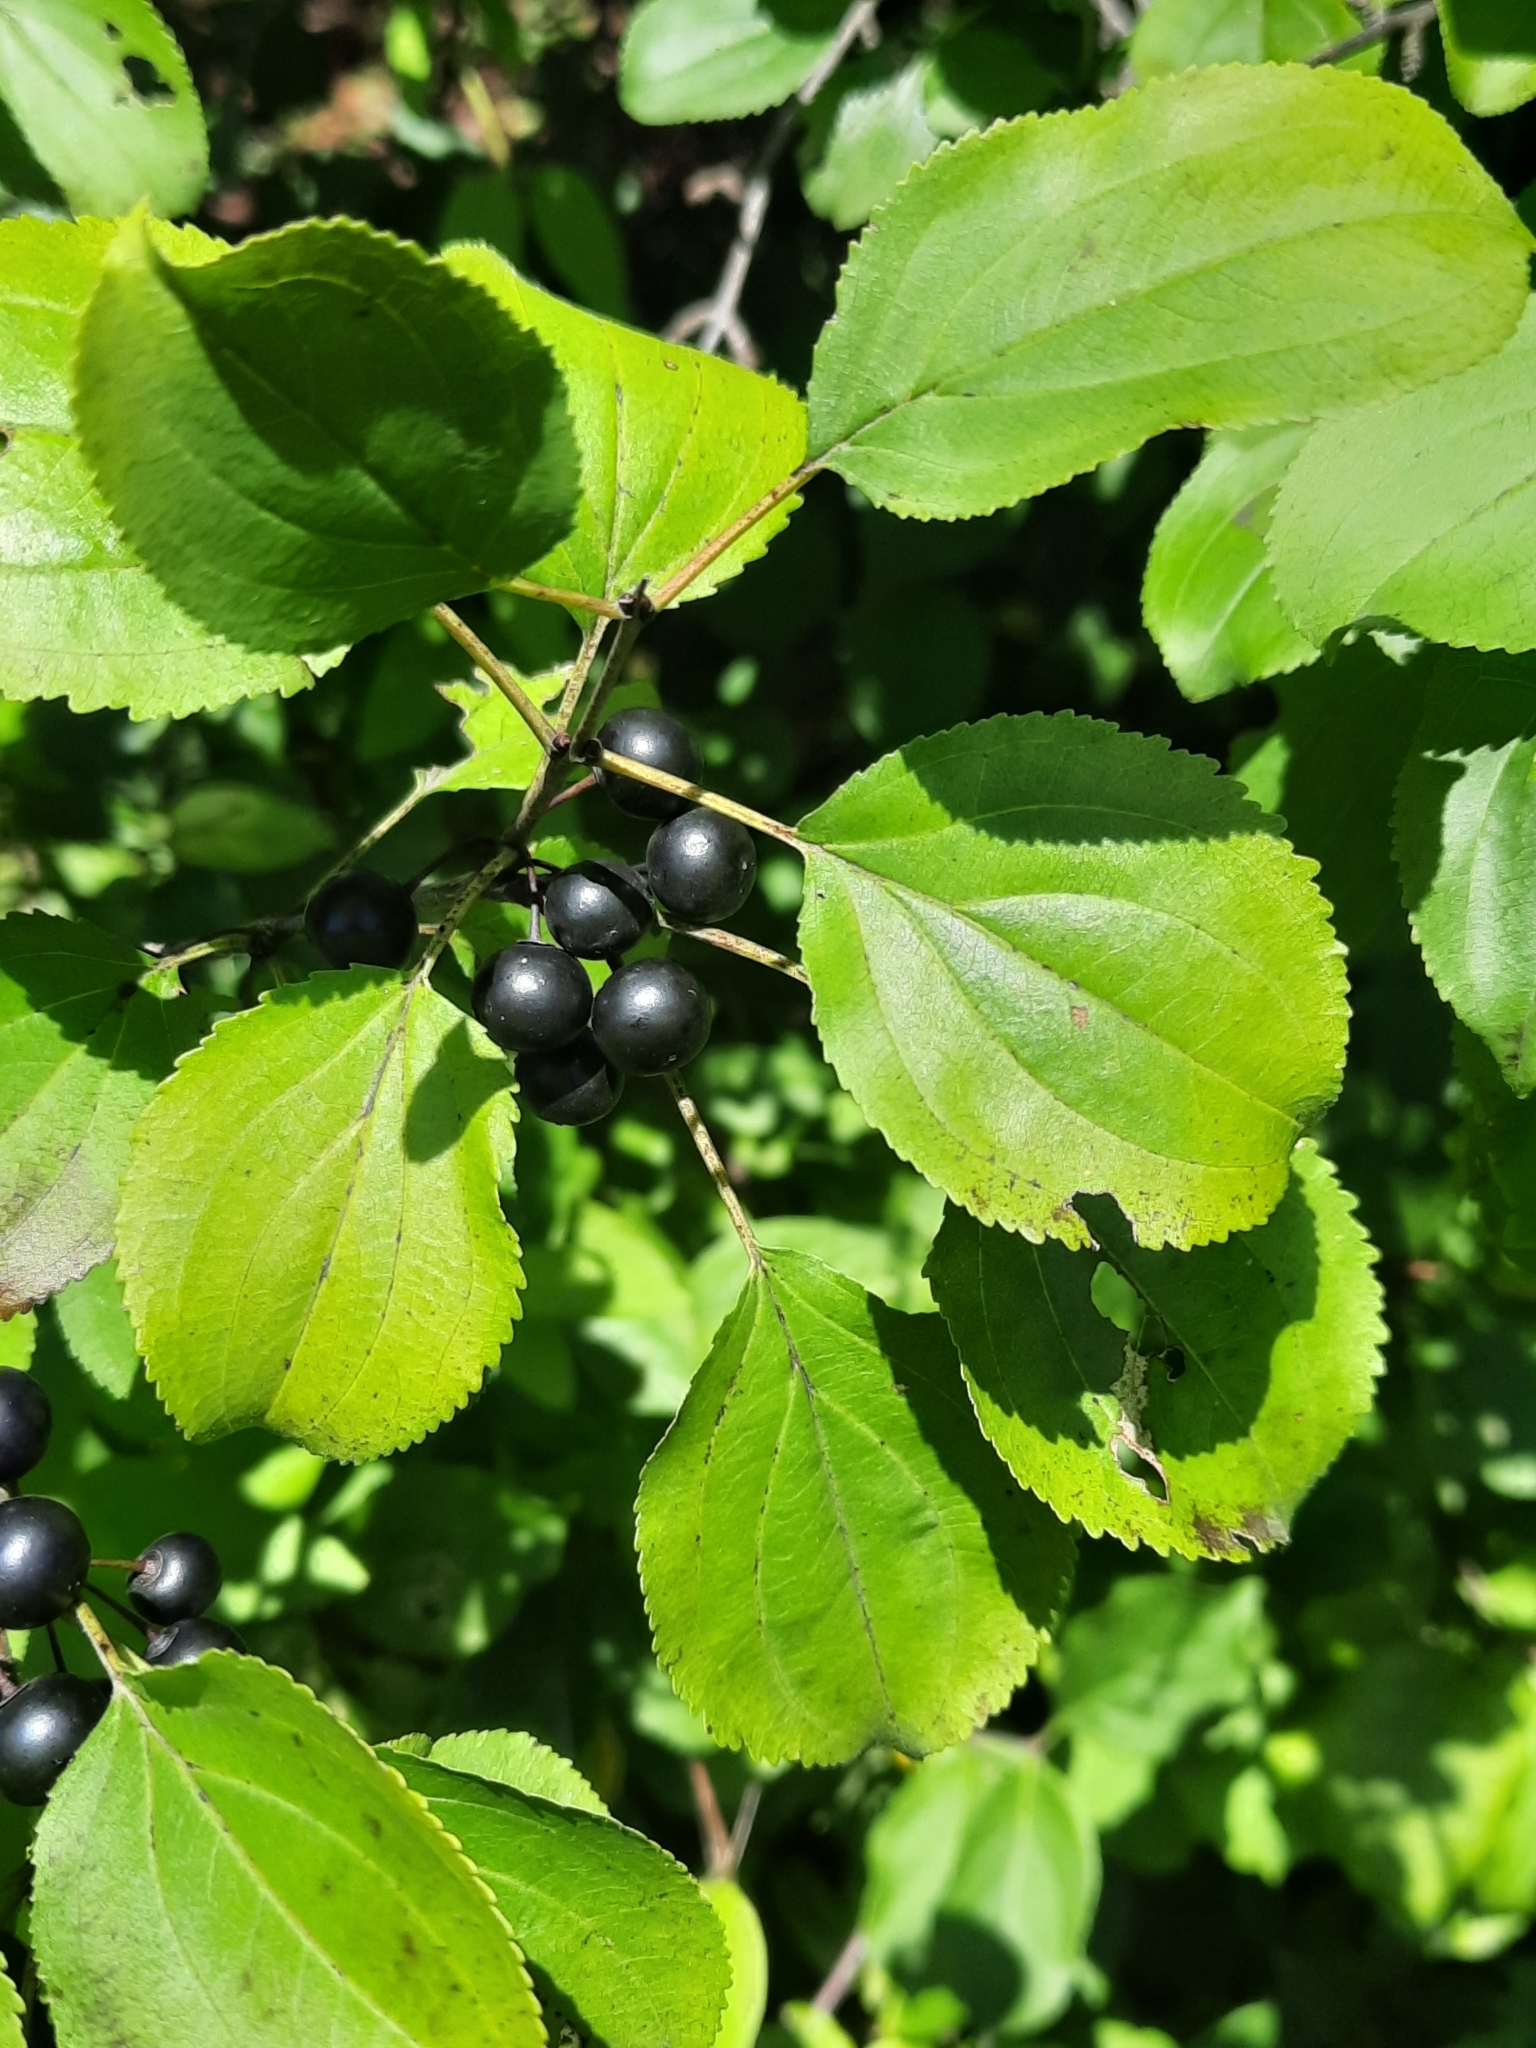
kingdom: Plantae
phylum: Tracheophyta
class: Magnoliopsida
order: Rosales
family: Rhamnaceae
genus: Rhamnus
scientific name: Rhamnus cathartica
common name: Common buckthorn
